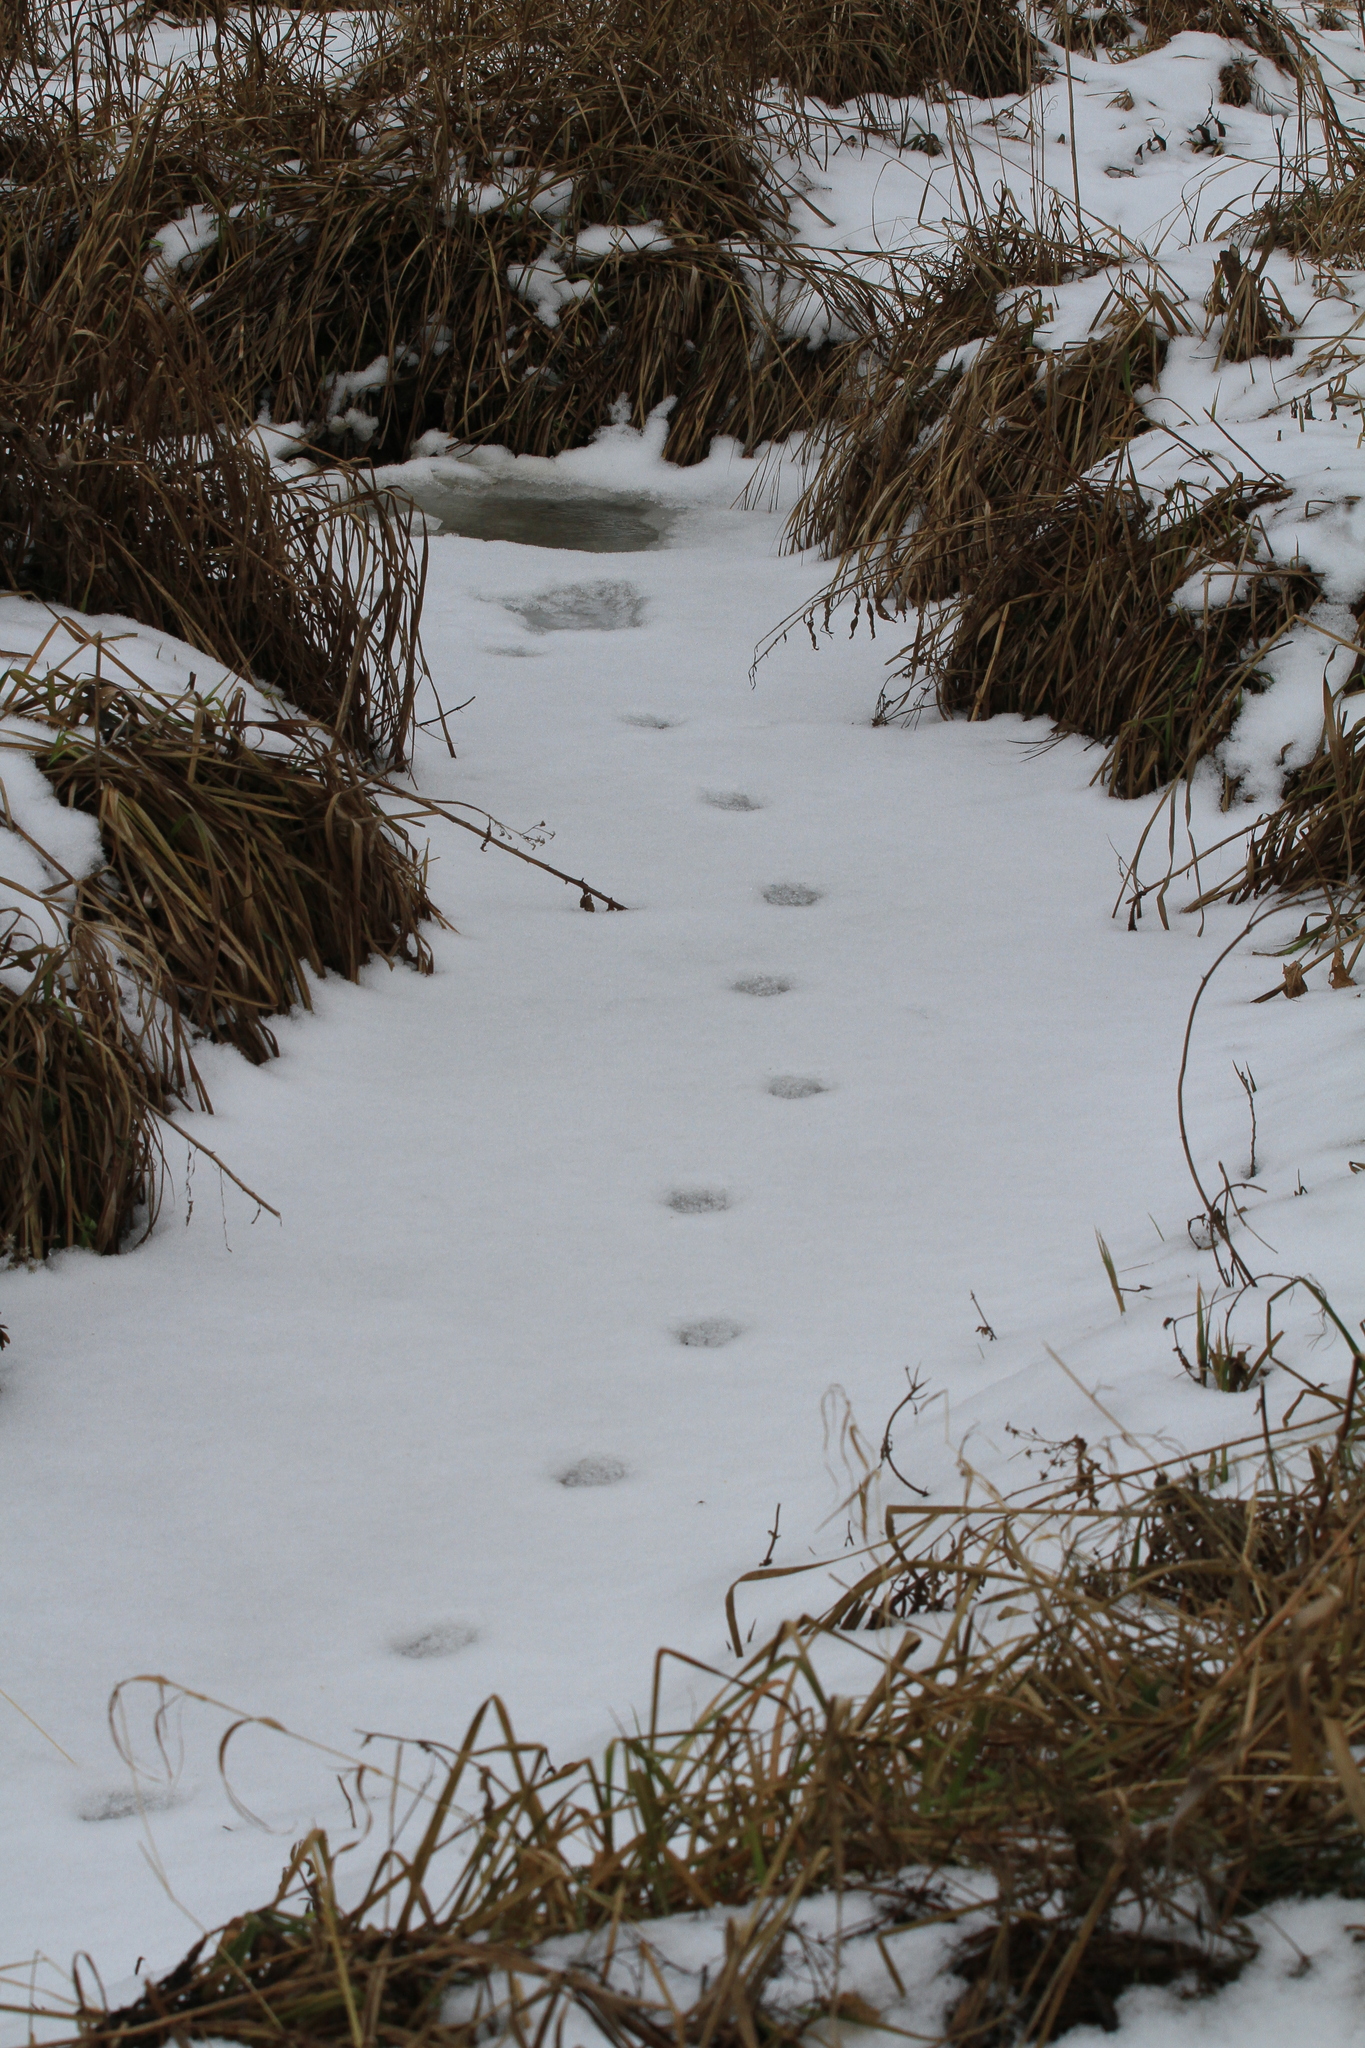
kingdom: Animalia
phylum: Chordata
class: Mammalia
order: Carnivora
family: Canidae
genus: Vulpes
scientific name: Vulpes vulpes
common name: Red fox
